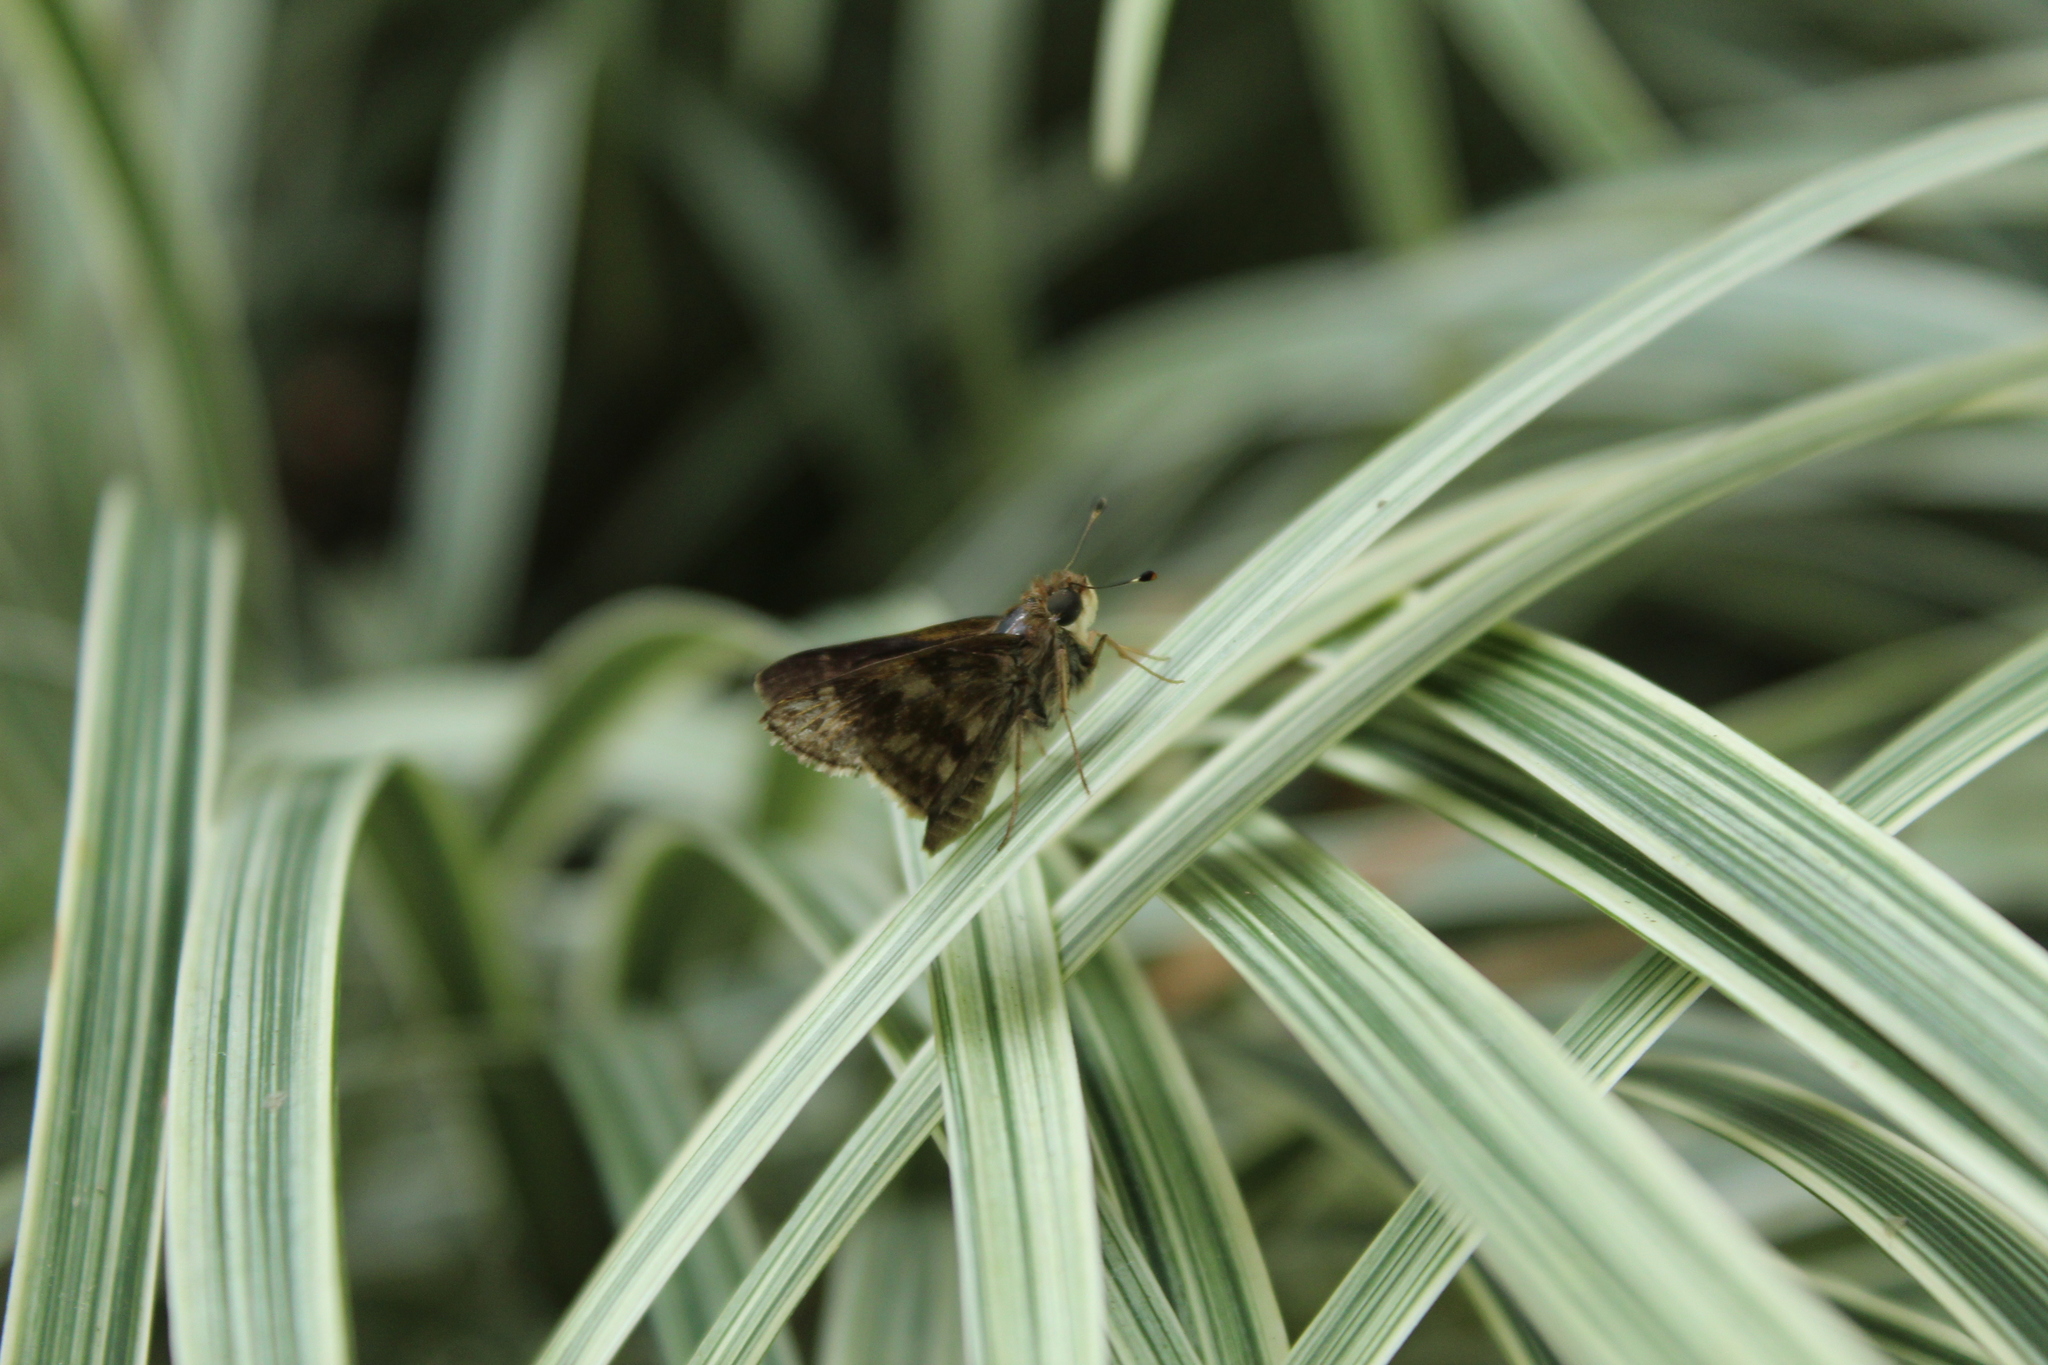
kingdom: Animalia
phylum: Arthropoda
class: Insecta
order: Lepidoptera
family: Hesperiidae
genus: Pompeius
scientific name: Pompeius pompeius
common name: Pompeius skipper
